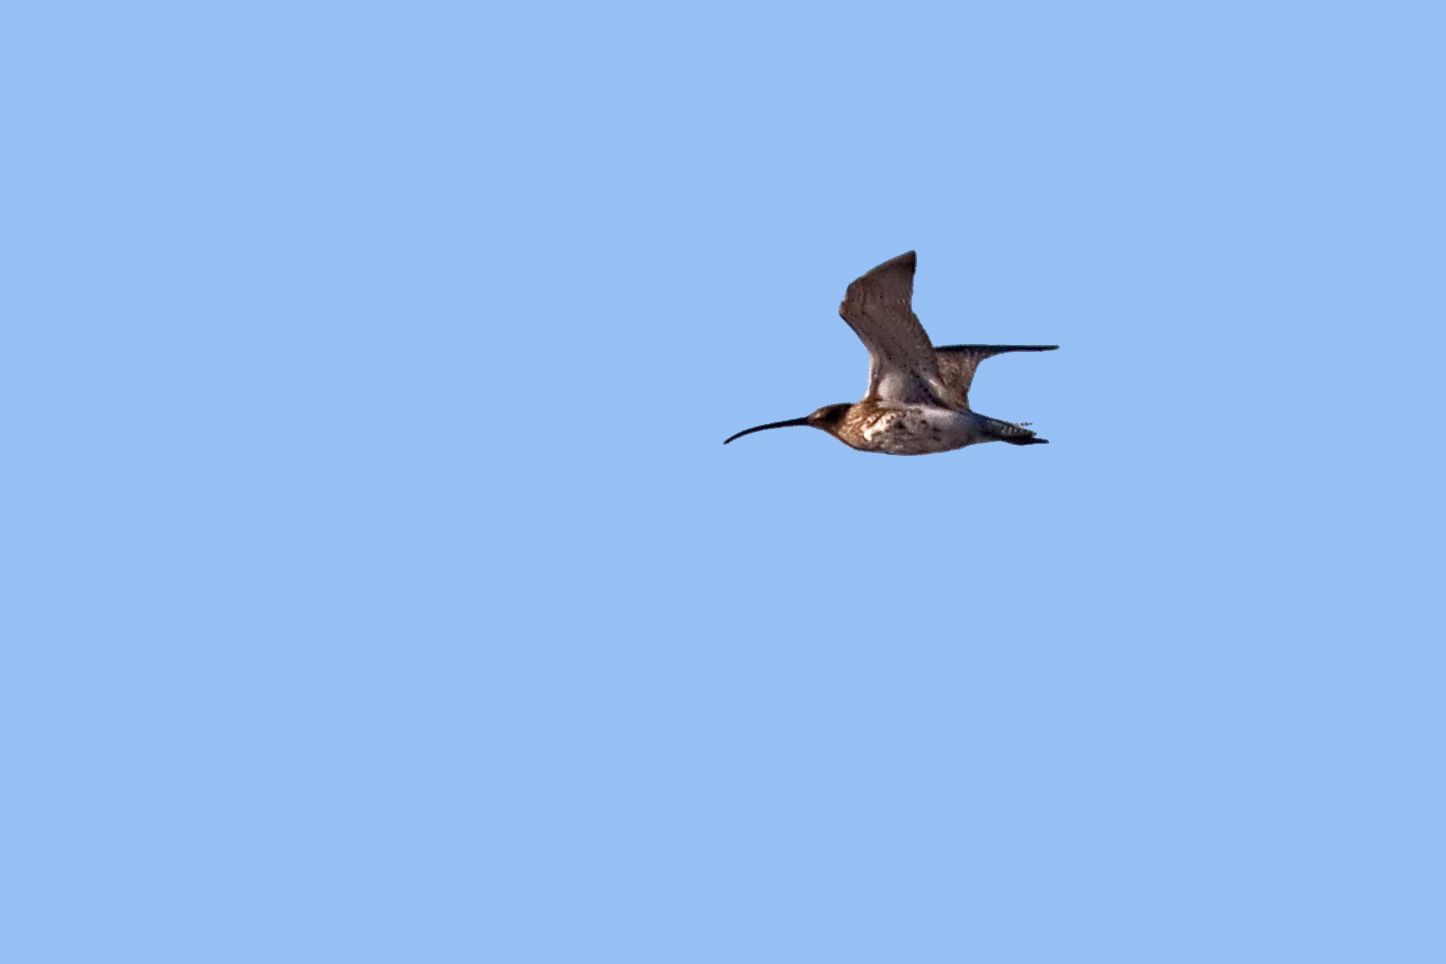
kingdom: Animalia
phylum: Chordata
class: Aves
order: Charadriiformes
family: Scolopacidae
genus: Numenius
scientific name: Numenius arquata
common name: Eurasian curlew
